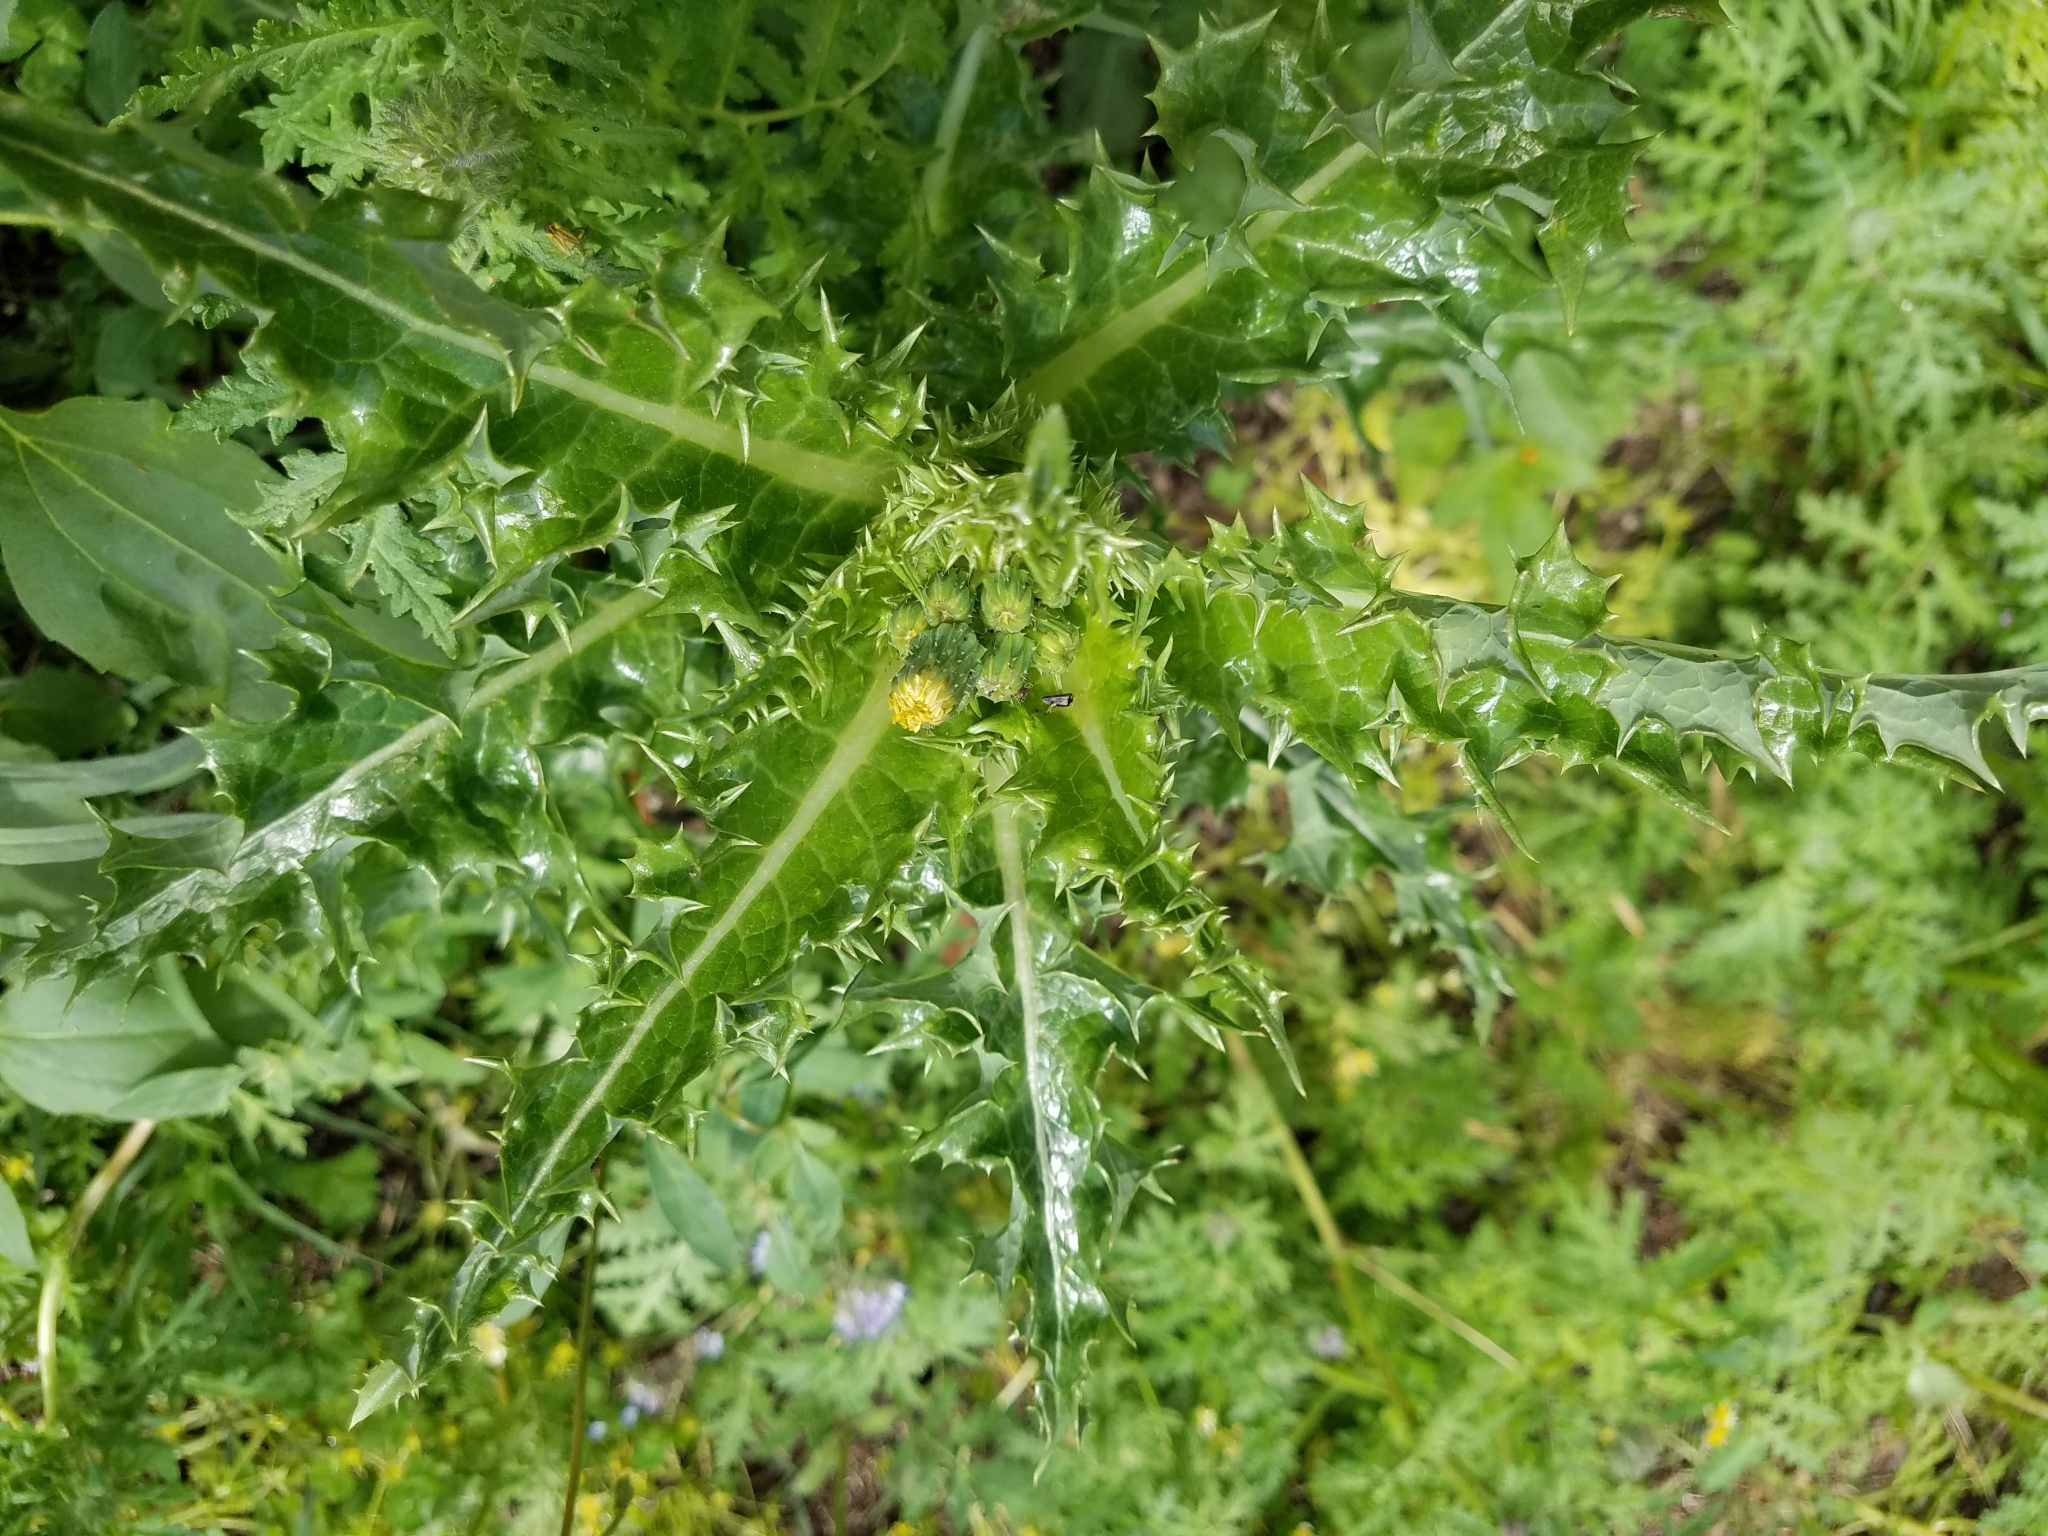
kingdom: Plantae
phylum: Tracheophyta
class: Magnoliopsida
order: Asterales
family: Asteraceae
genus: Sonchus
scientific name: Sonchus asper
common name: Prickly sow-thistle
